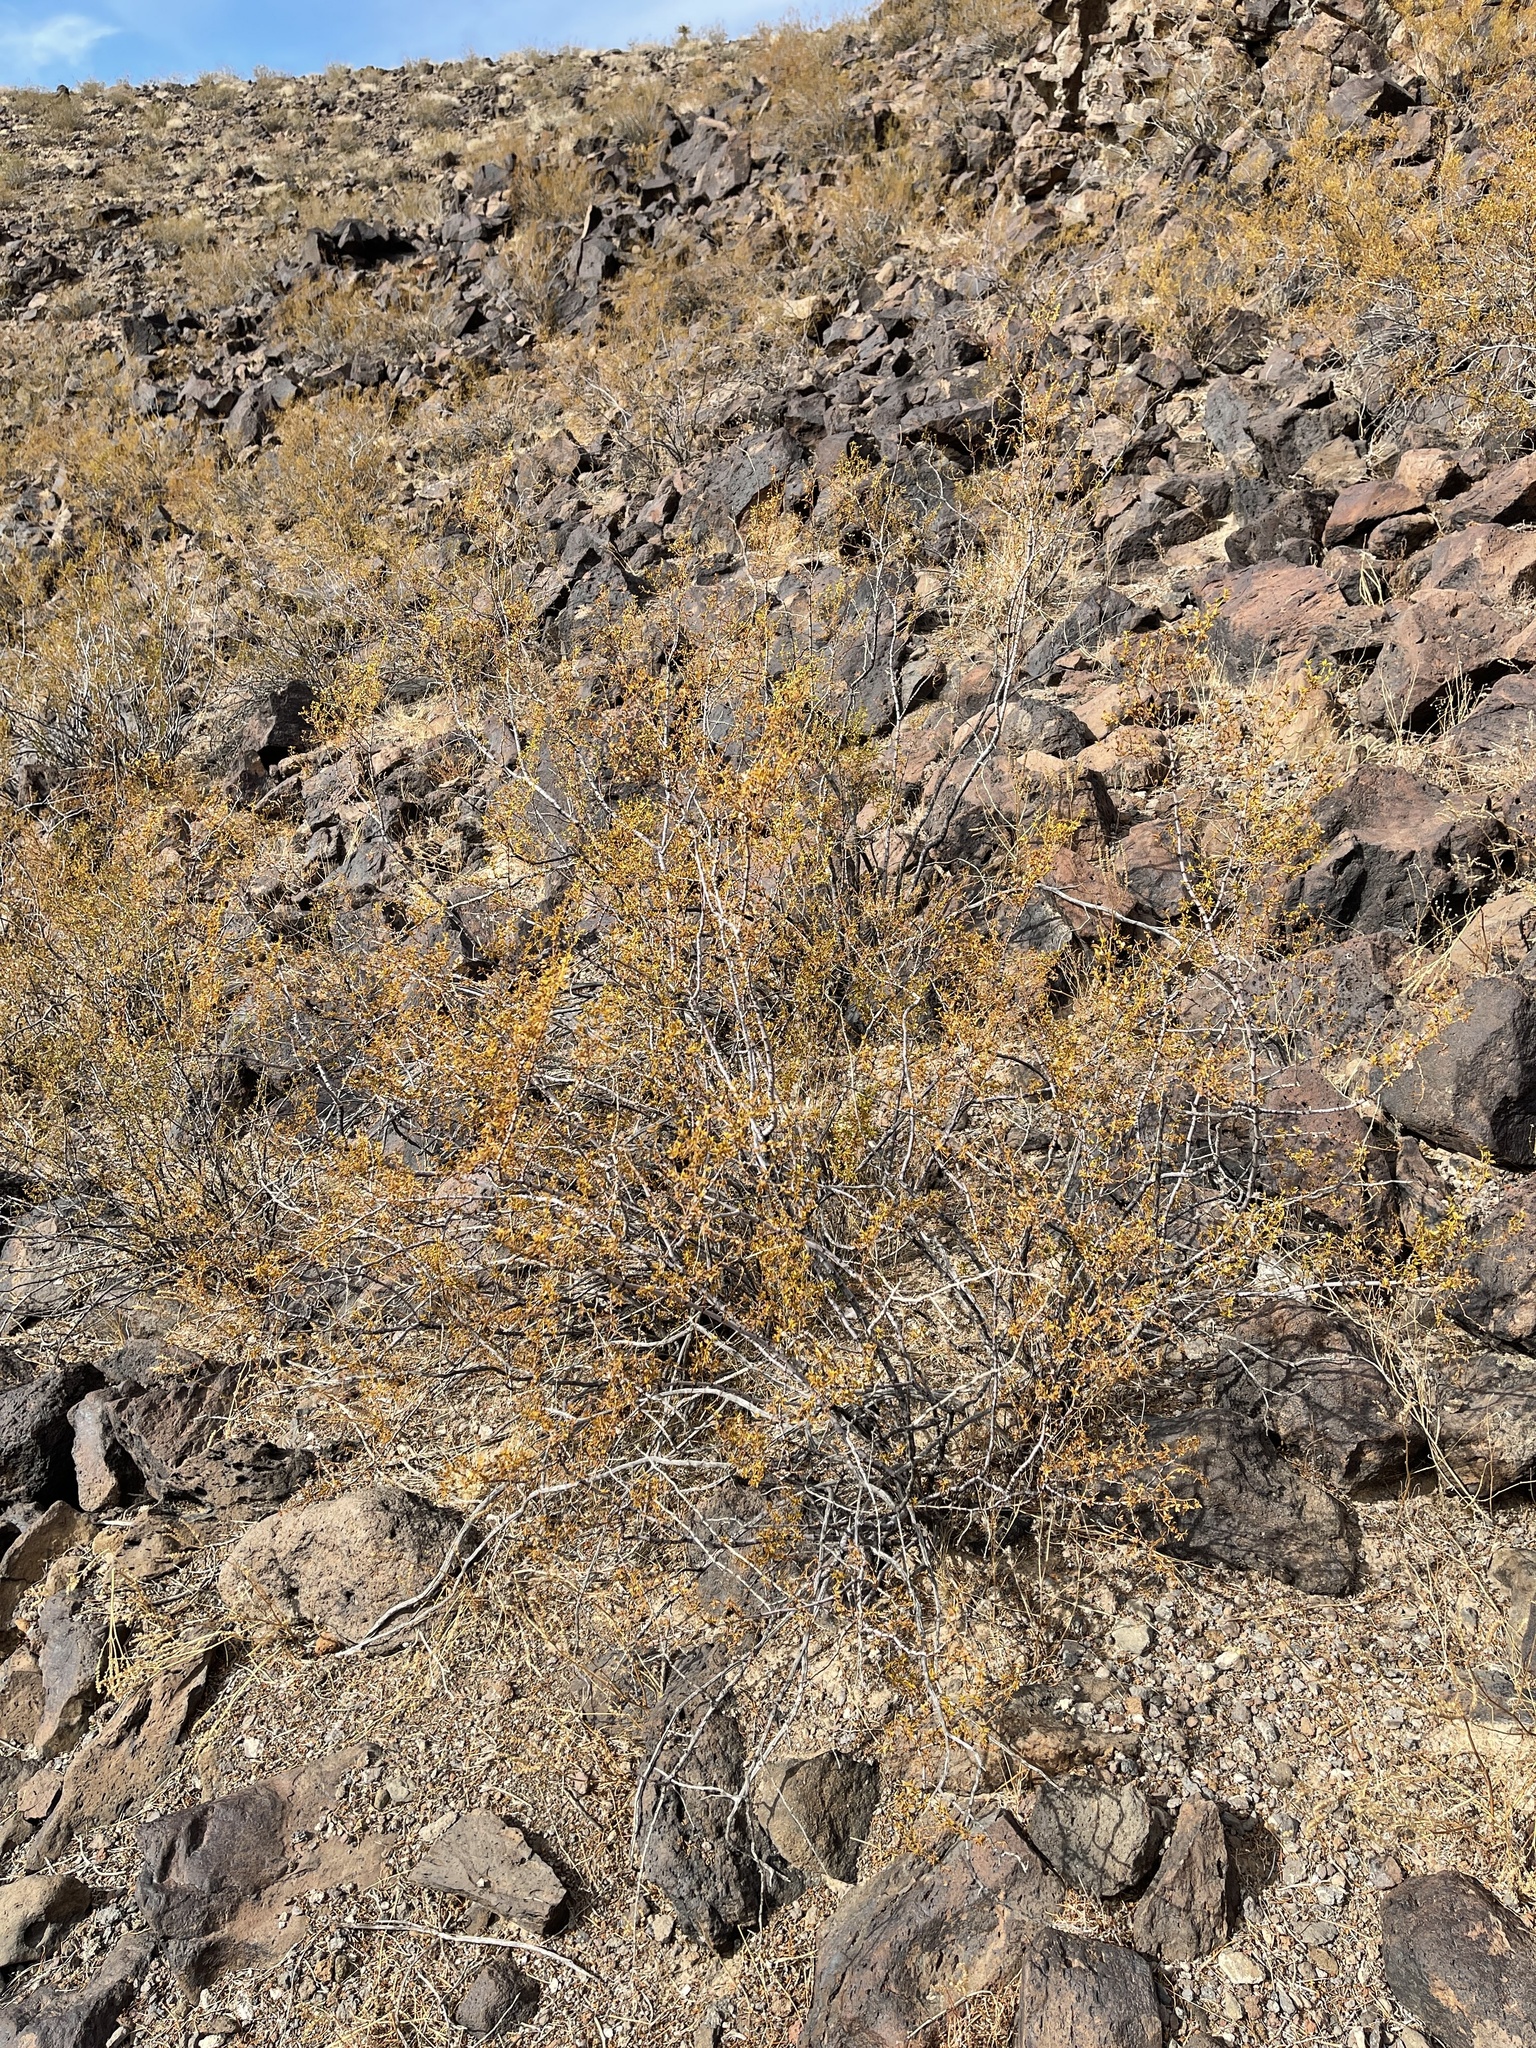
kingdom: Plantae
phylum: Tracheophyta
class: Magnoliopsida
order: Zygophyllales
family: Zygophyllaceae
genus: Larrea
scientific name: Larrea tridentata
